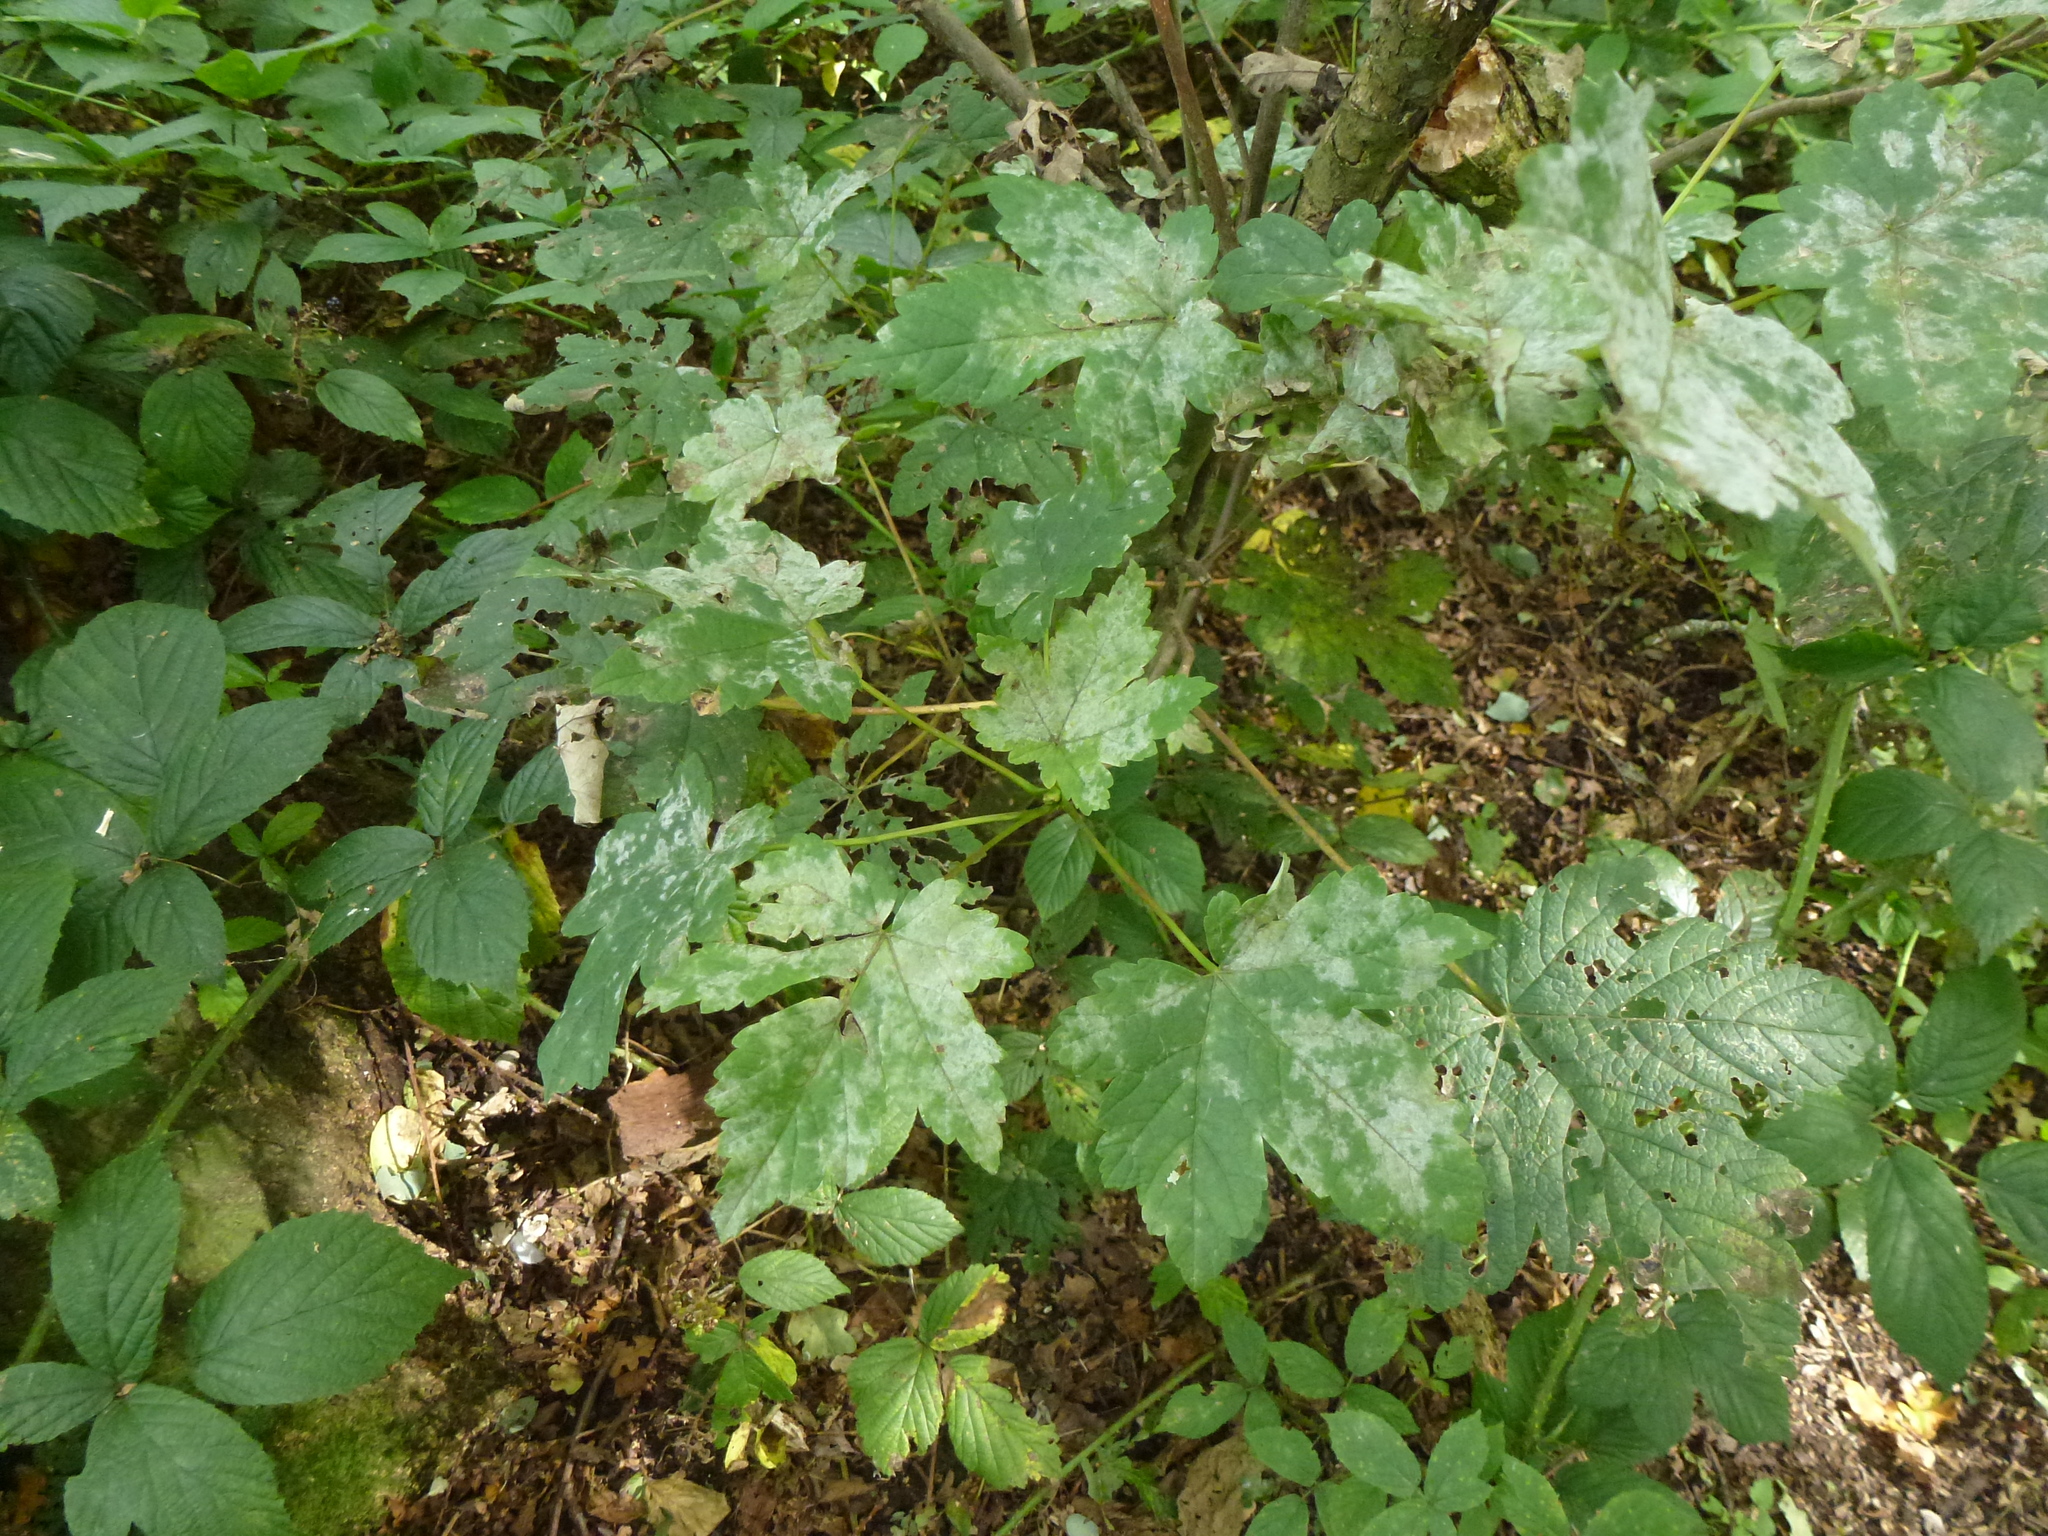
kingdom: Plantae
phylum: Tracheophyta
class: Magnoliopsida
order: Sapindales
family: Sapindaceae
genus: Acer
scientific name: Acer pseudoplatanus
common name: Sycamore
